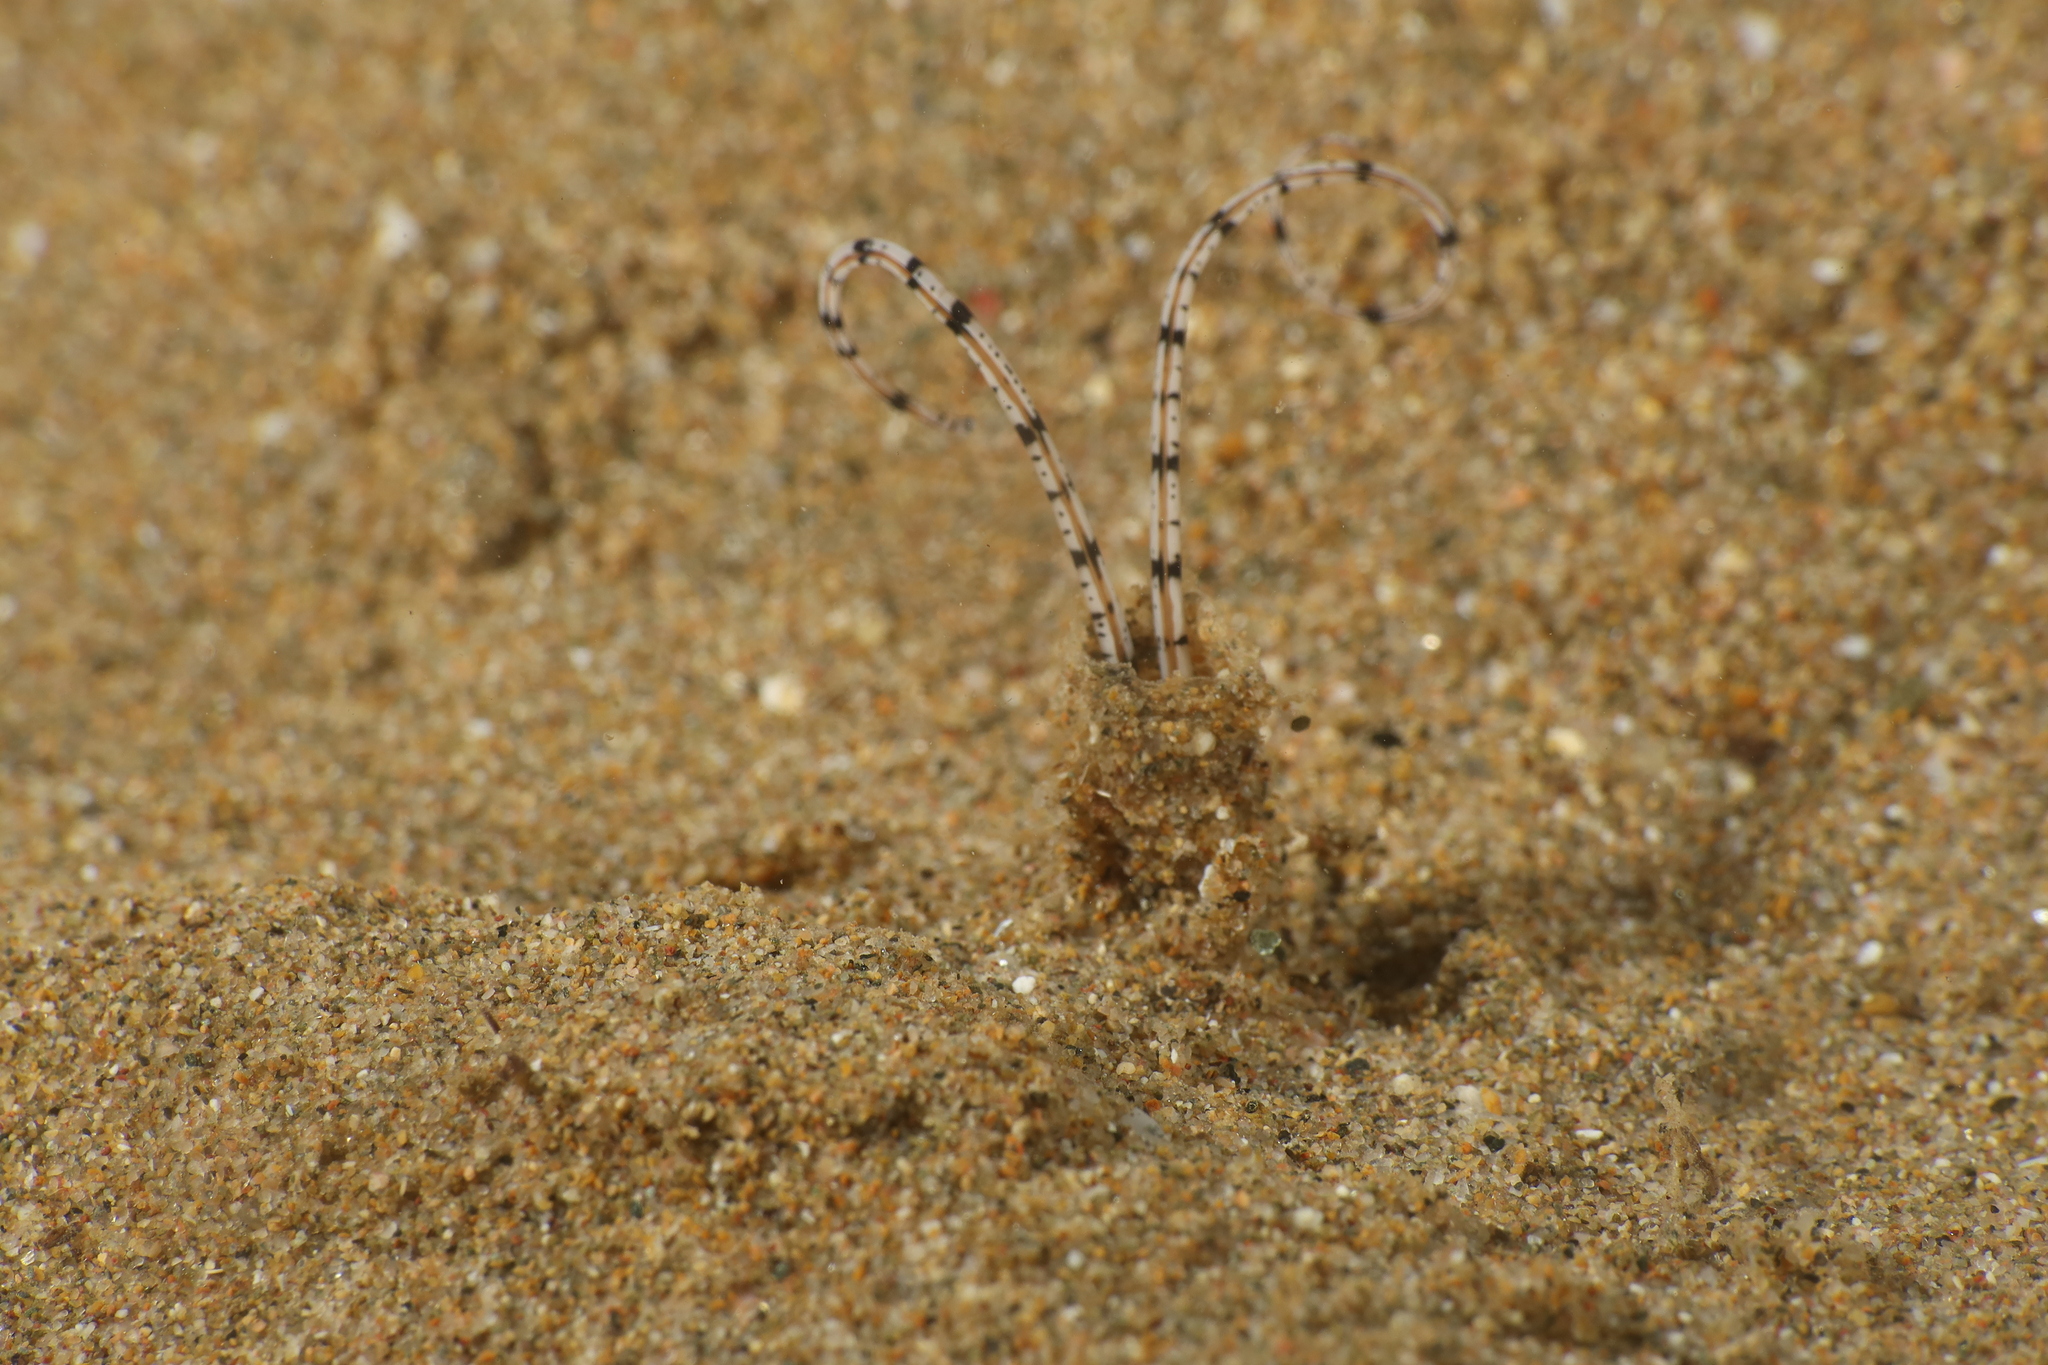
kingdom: Animalia
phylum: Annelida
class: Polychaeta
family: Chaetopteridae
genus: Mesochaetopterus
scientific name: Mesochaetopterus rogeri
